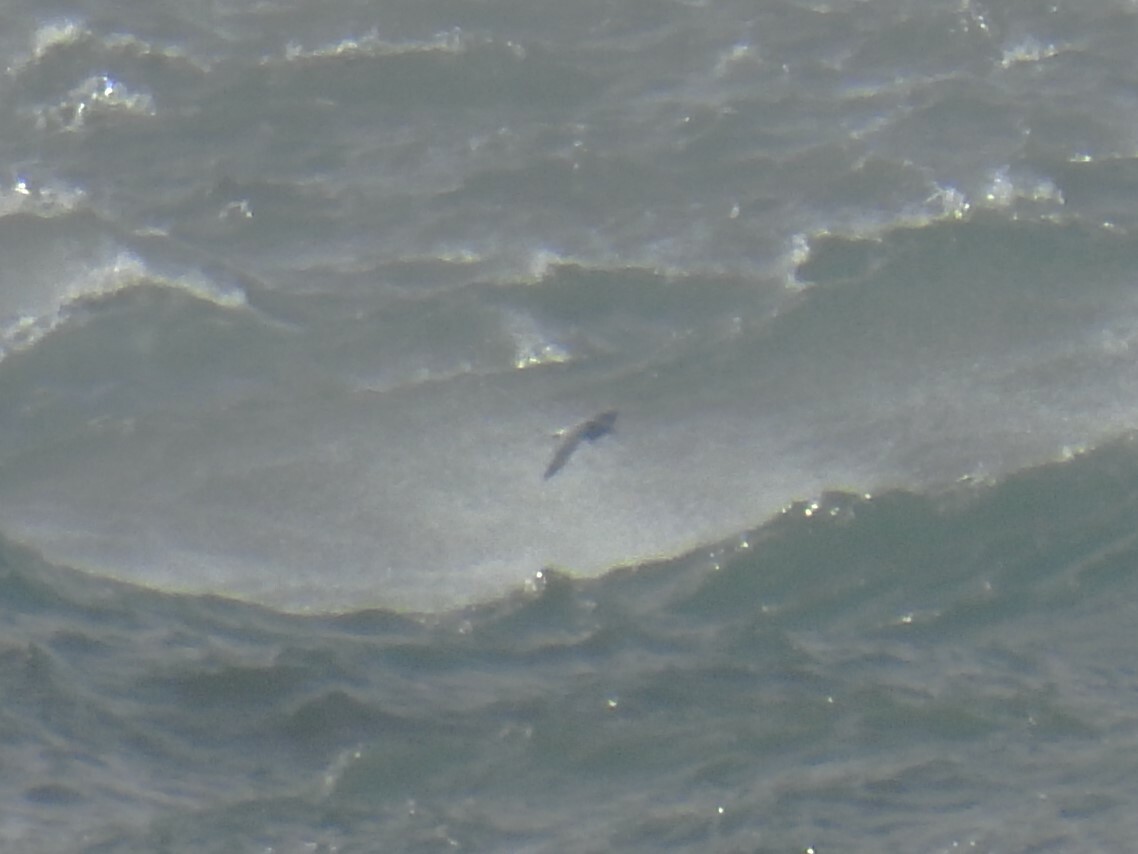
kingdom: Animalia
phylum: Chordata
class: Aves
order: Charadriiformes
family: Laridae
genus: Larus
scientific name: Larus
